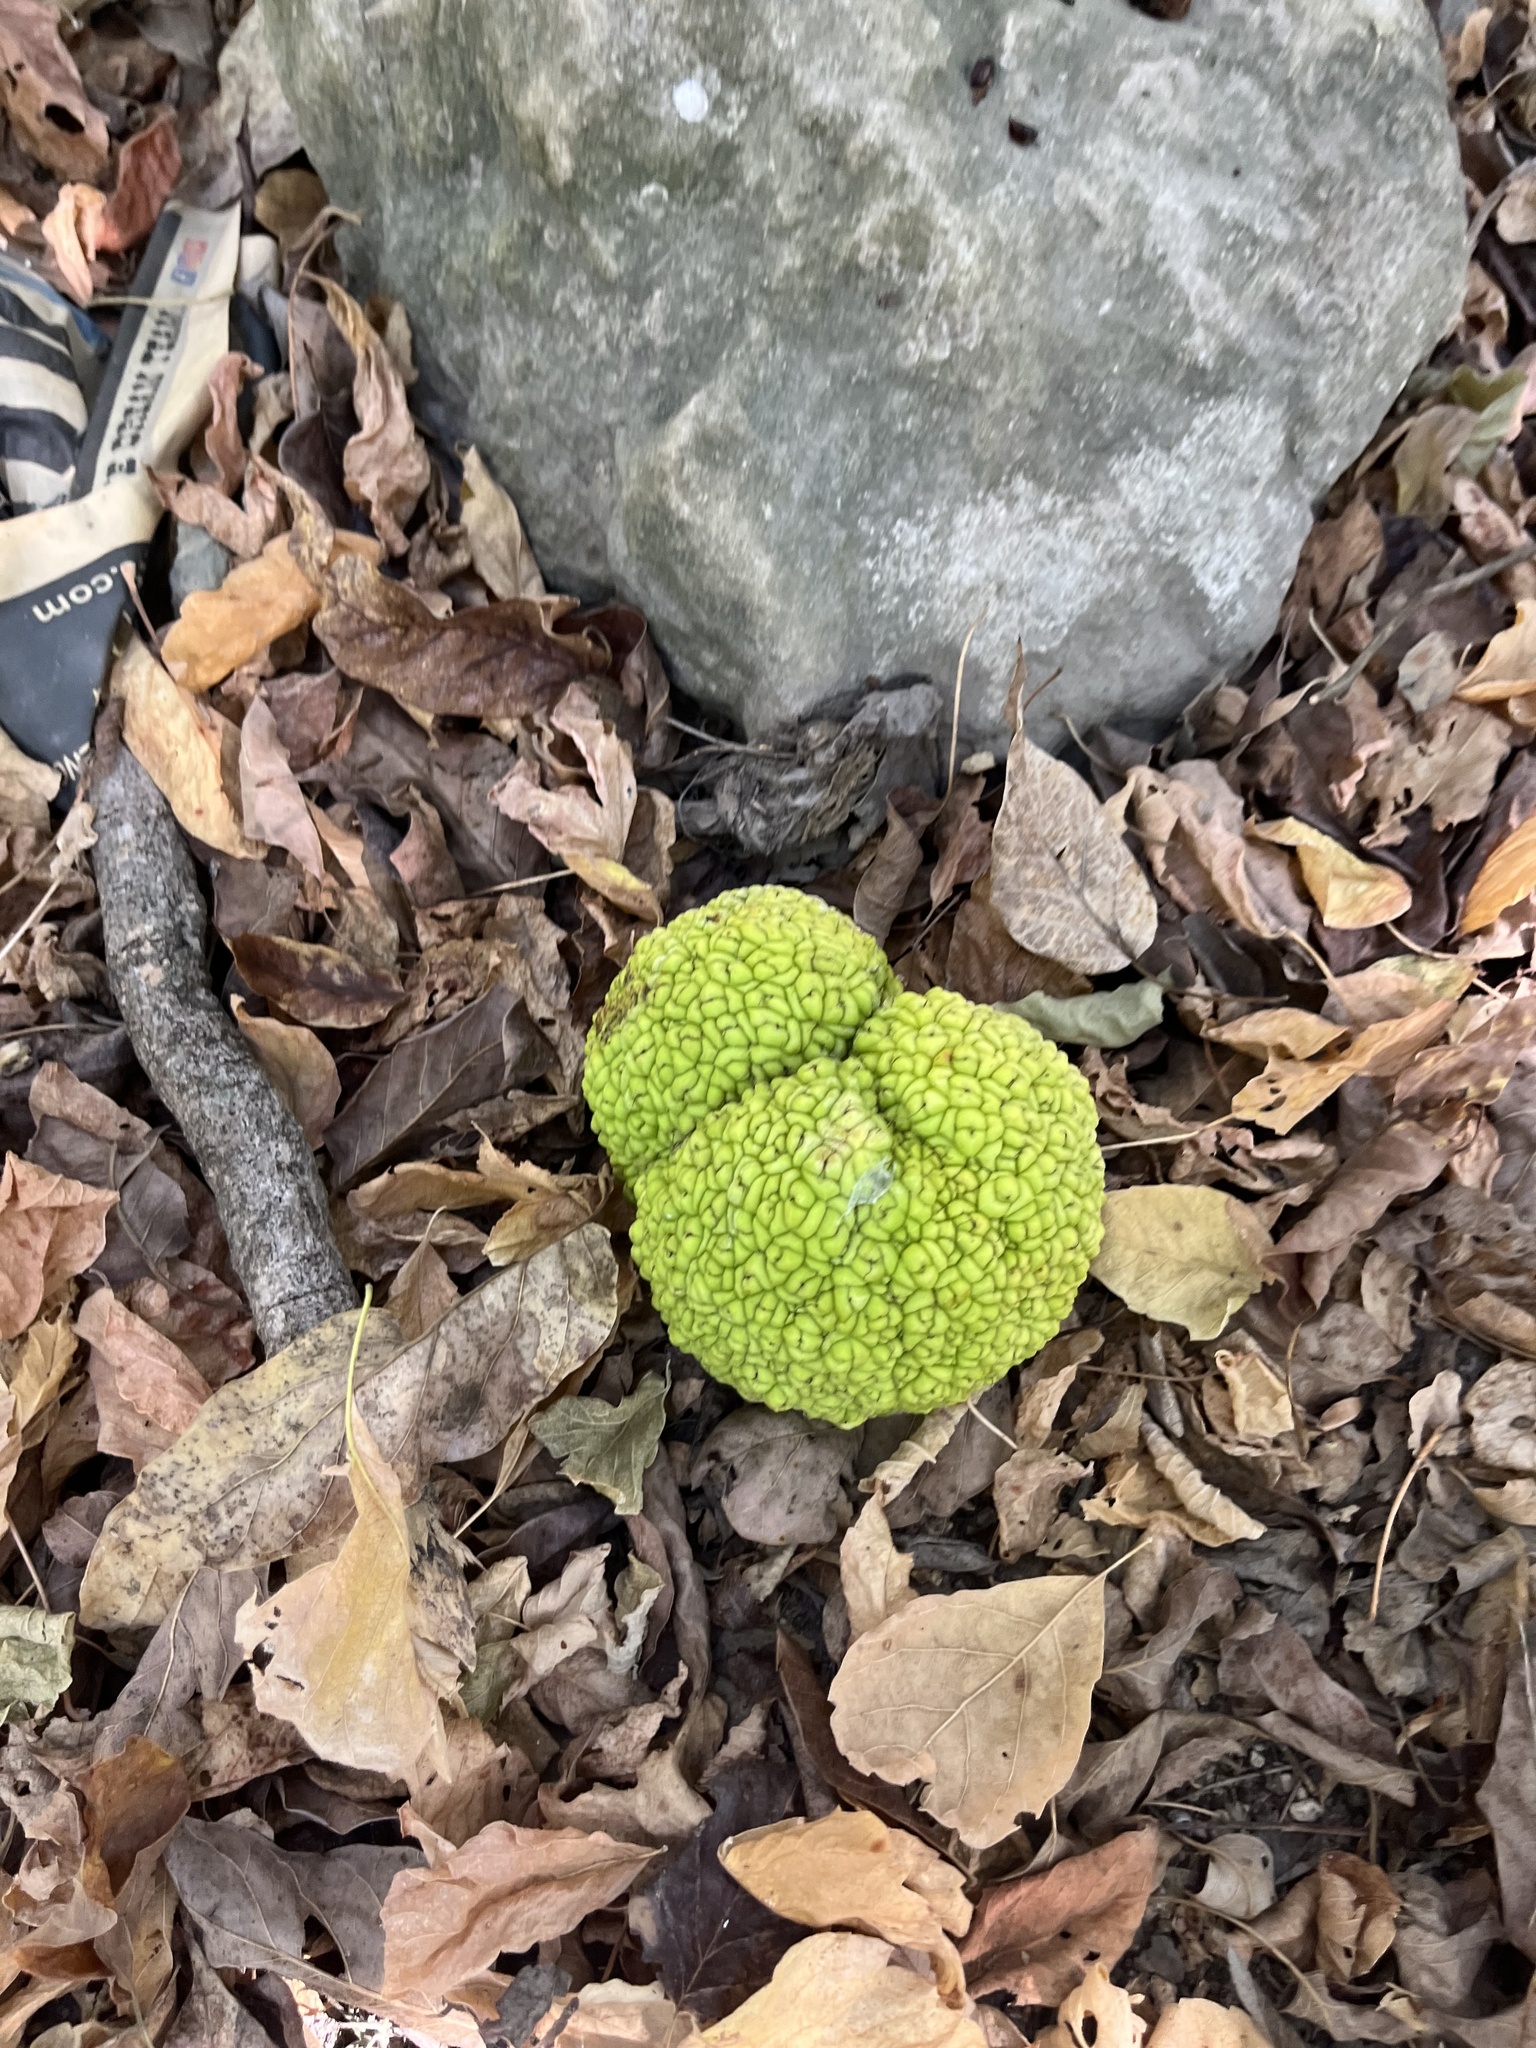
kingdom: Plantae
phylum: Tracheophyta
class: Magnoliopsida
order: Rosales
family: Moraceae
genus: Maclura
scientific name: Maclura pomifera
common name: Osage-orange
